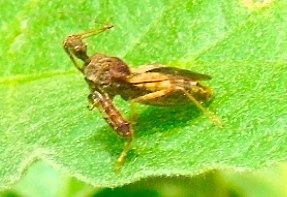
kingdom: Animalia
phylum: Arthropoda
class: Insecta
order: Hemiptera
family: Reduviidae
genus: Sinea
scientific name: Sinea
